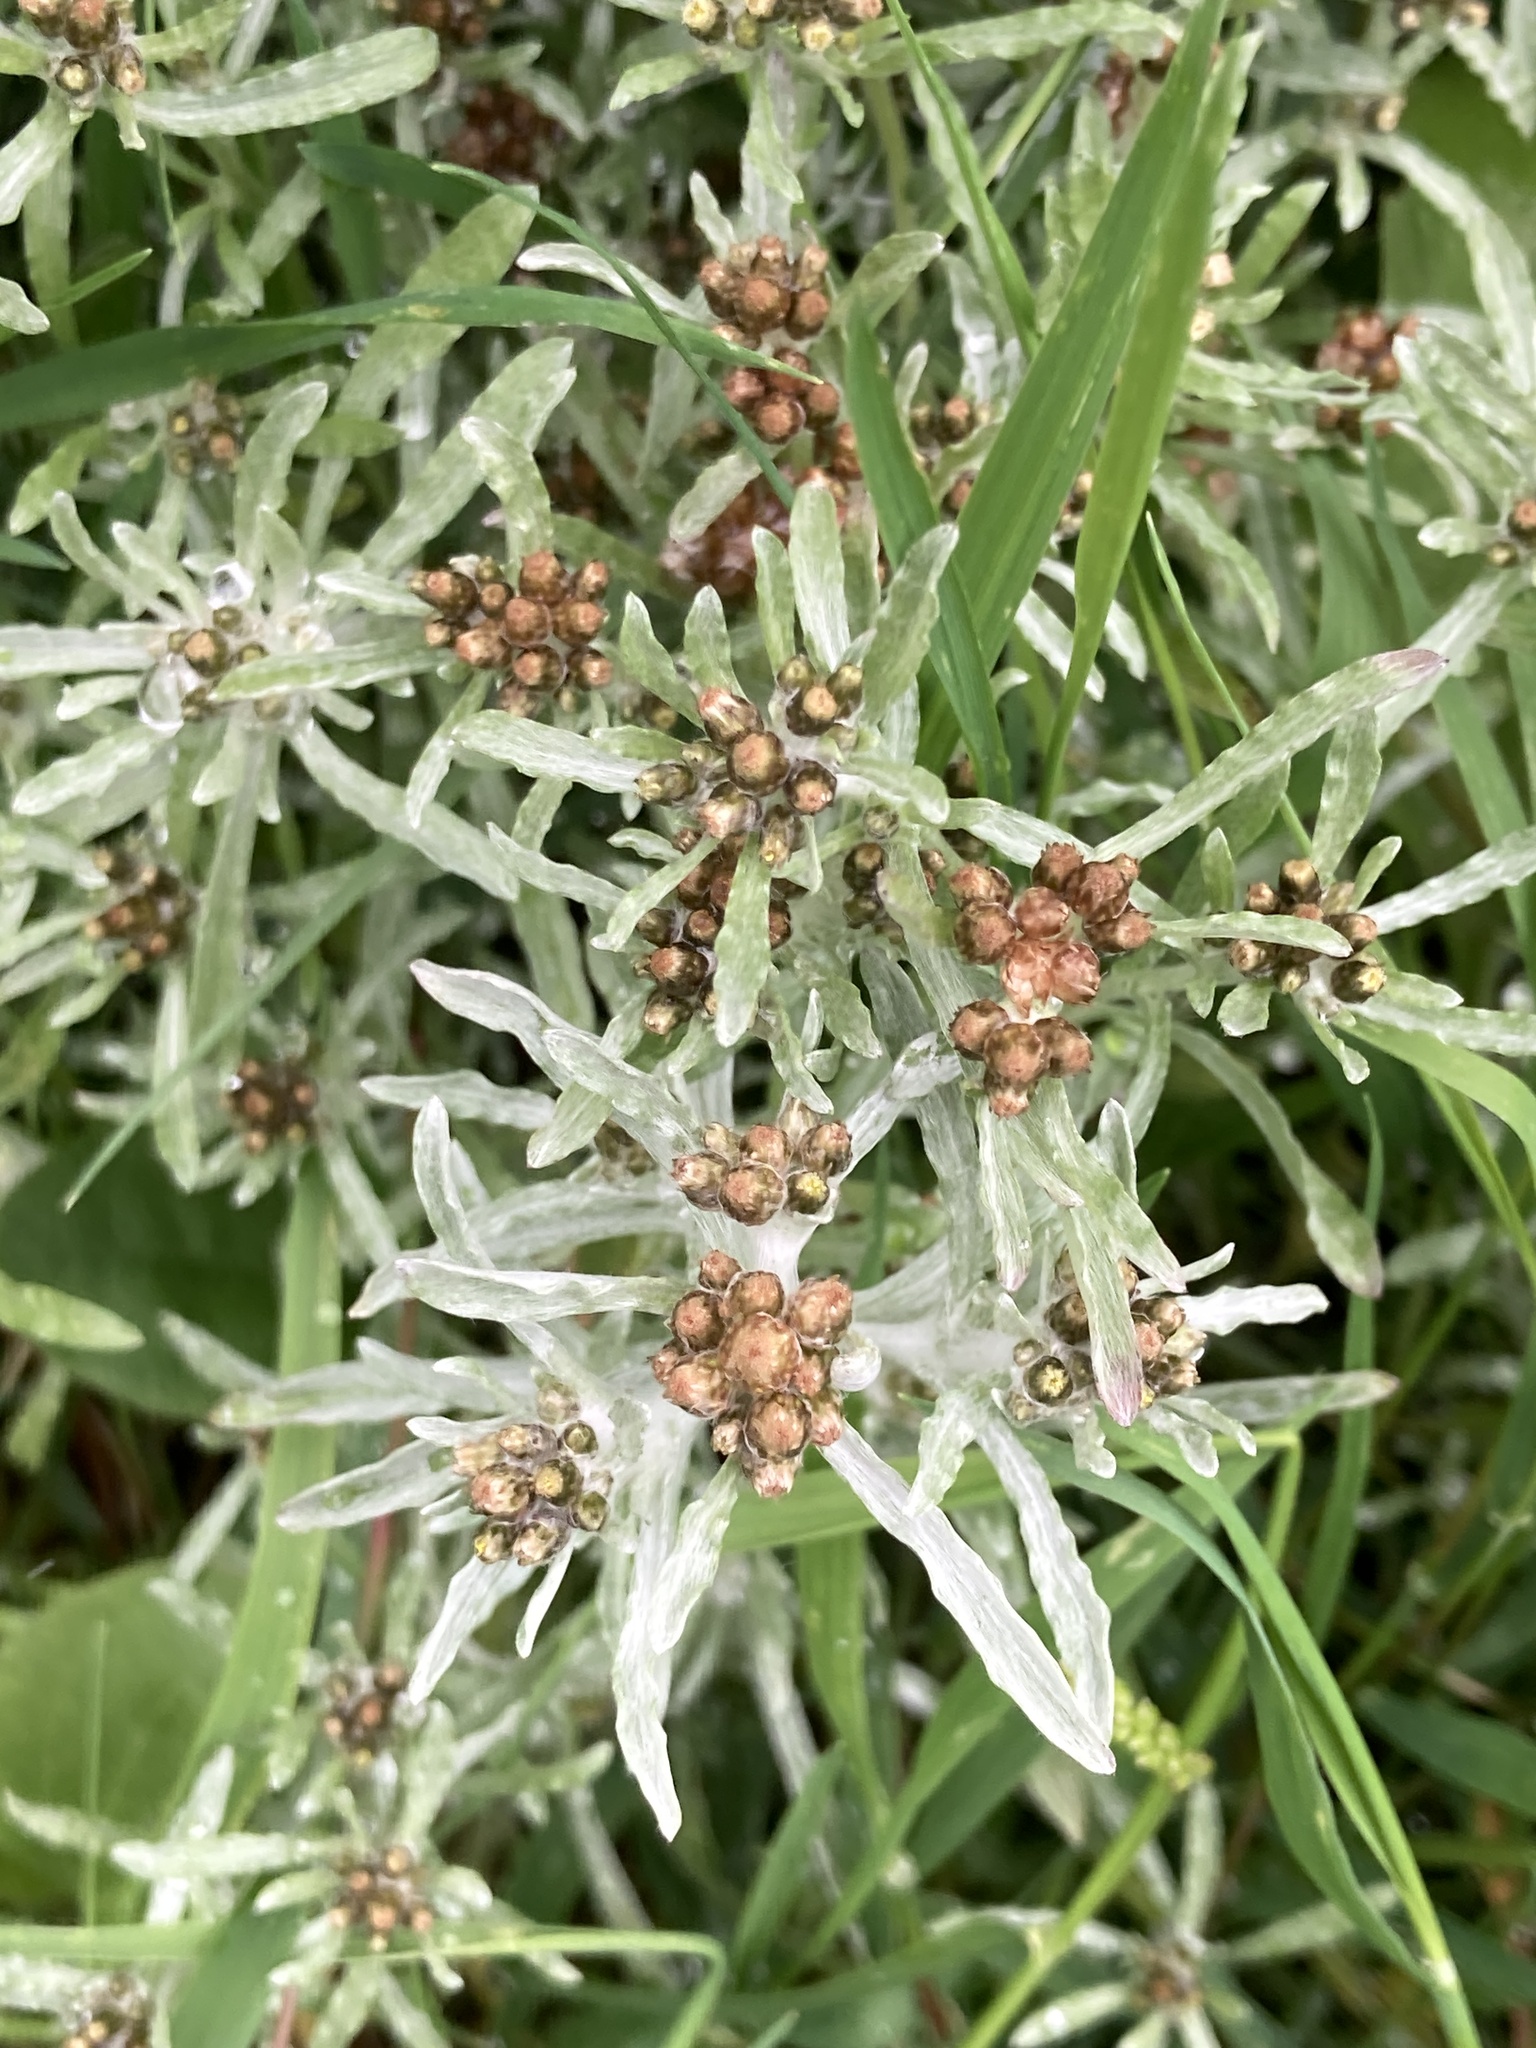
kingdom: Plantae
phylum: Tracheophyta
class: Magnoliopsida
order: Asterales
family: Asteraceae
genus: Gnaphalium
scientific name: Gnaphalium uliginosum
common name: Marsh cudweed
